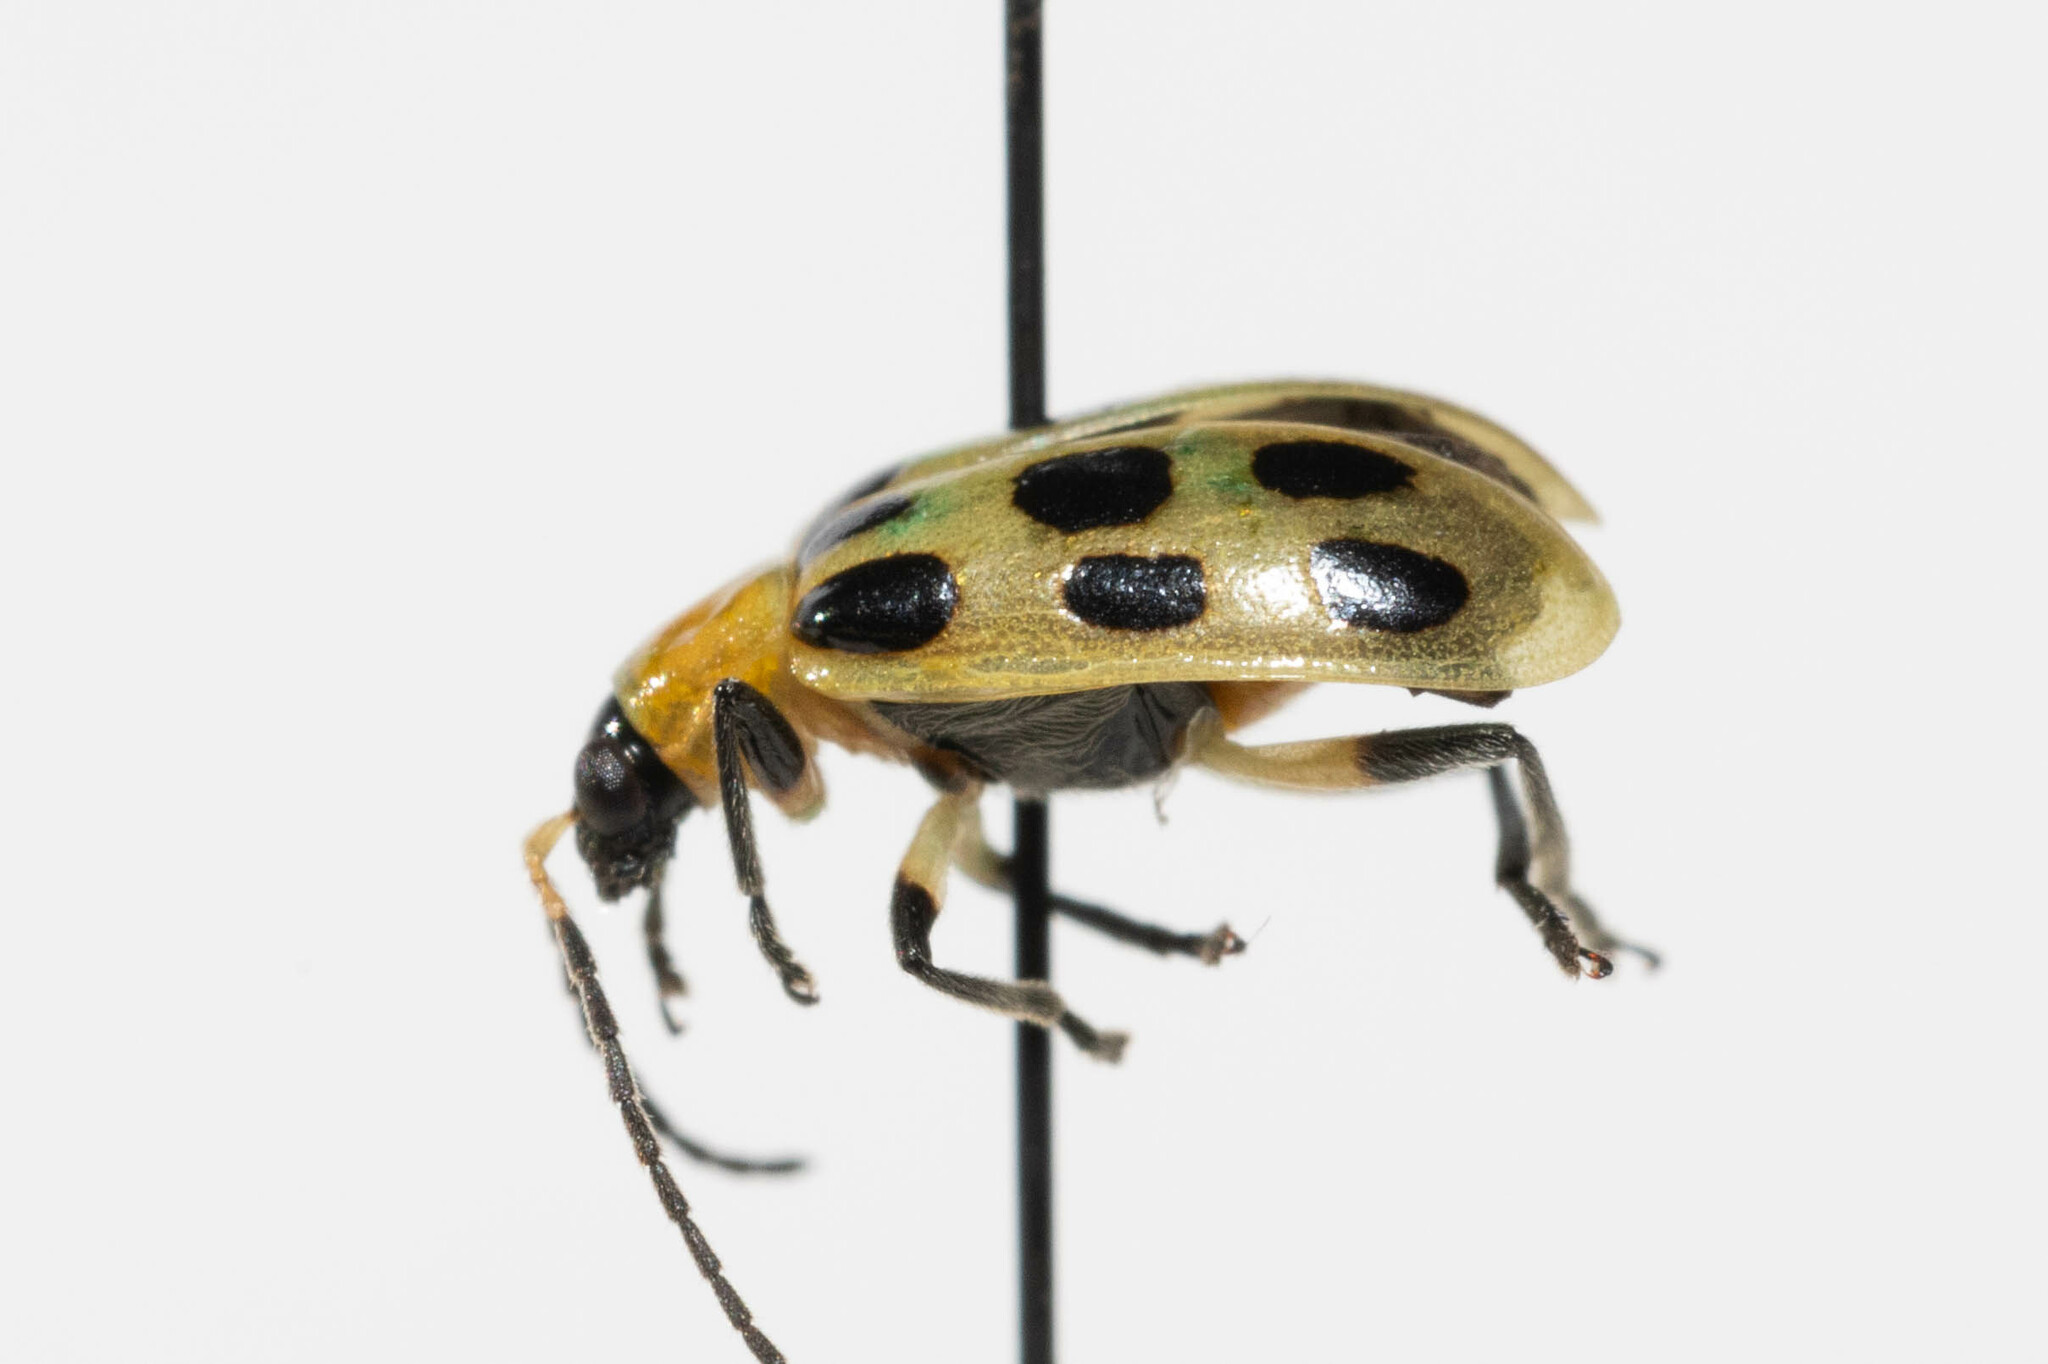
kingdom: Animalia
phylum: Arthropoda
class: Insecta
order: Coleoptera
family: Chrysomelidae
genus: Diabrotica
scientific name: Diabrotica undecimpunctata
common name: Spotted cucumber beetle
